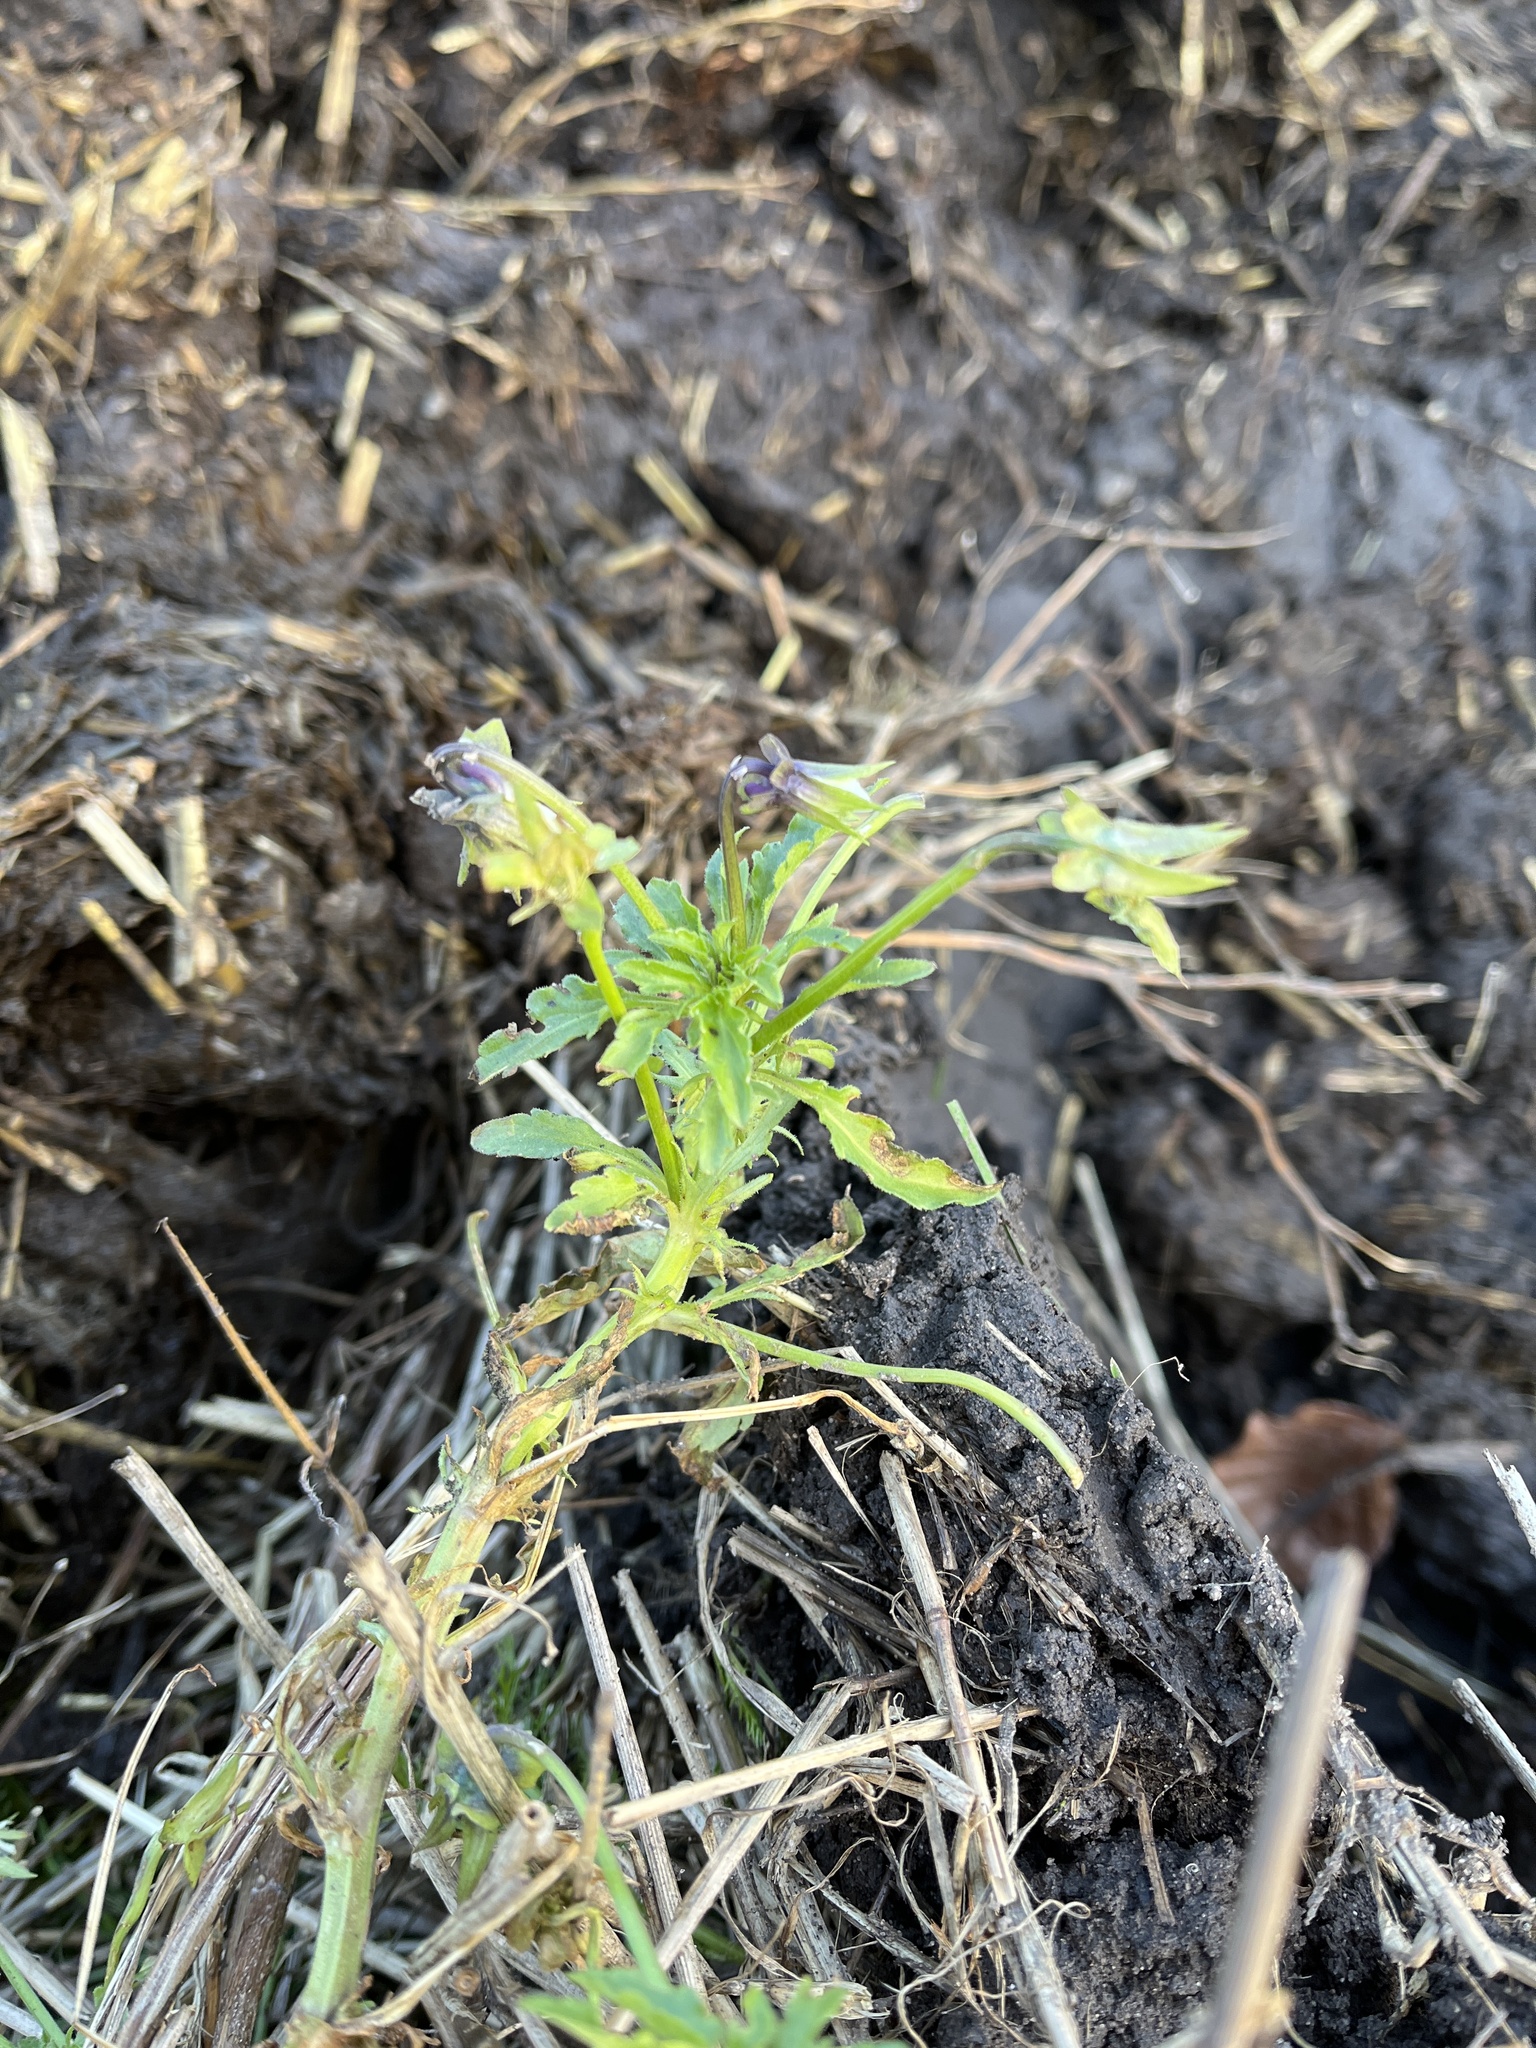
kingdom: Plantae
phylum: Tracheophyta
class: Magnoliopsida
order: Malpighiales
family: Violaceae
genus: Viola
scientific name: Viola arvensis
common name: Field pansy
